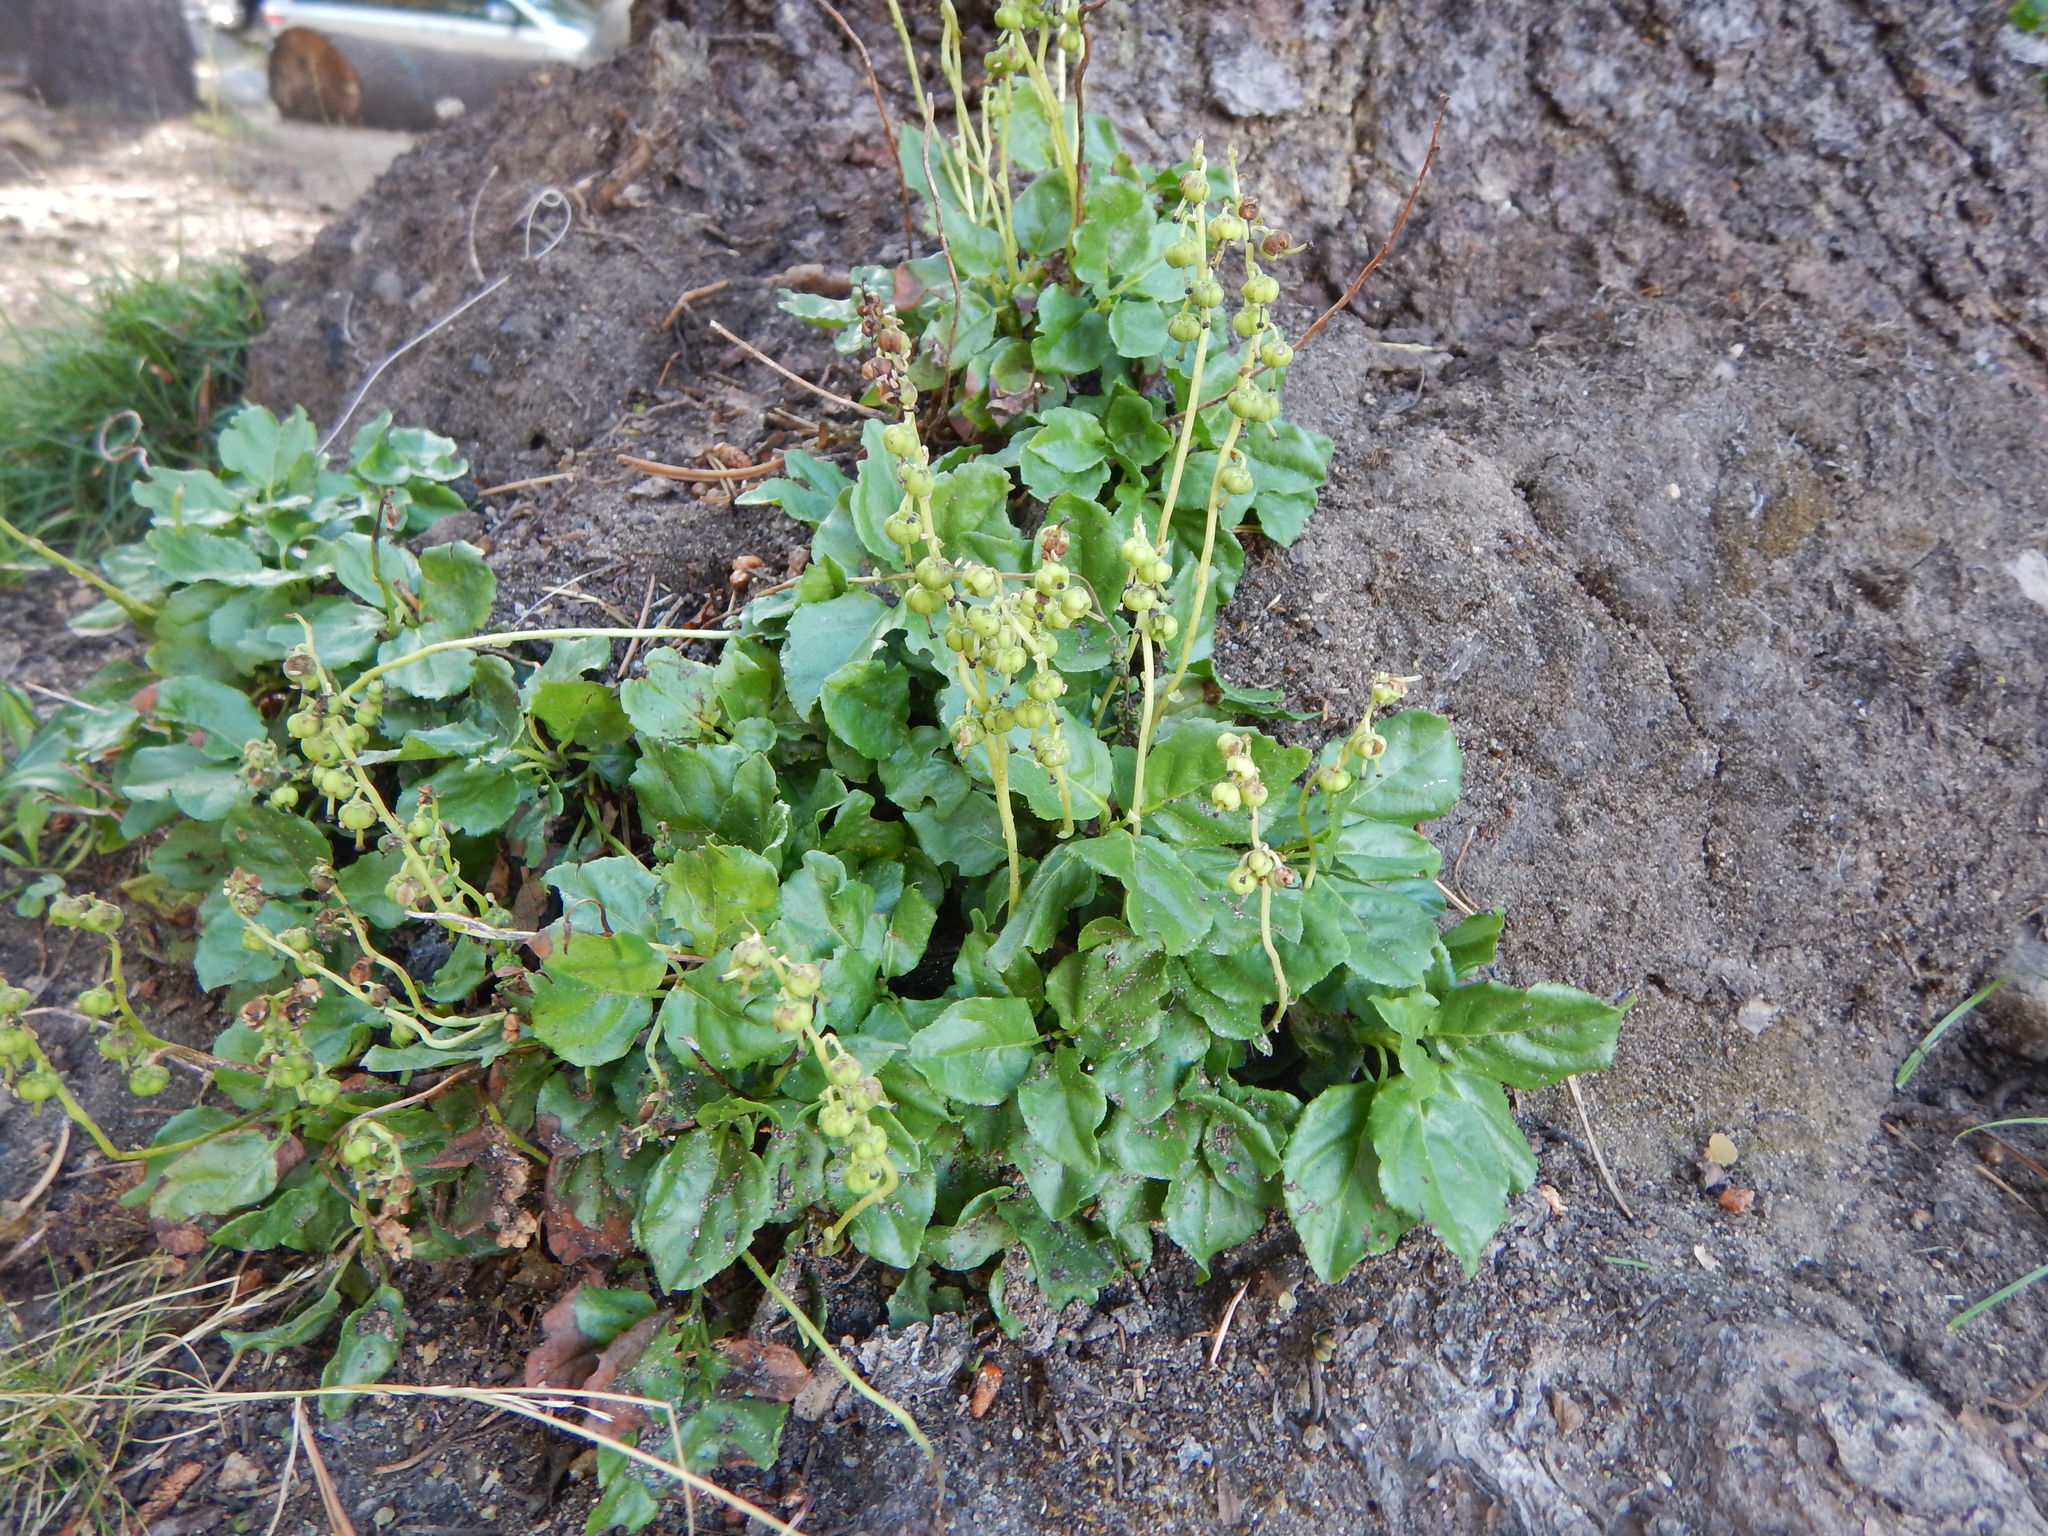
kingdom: Plantae
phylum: Tracheophyta
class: Magnoliopsida
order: Ericales
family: Ericaceae
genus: Orthilia
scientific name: Orthilia secunda
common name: One-sided orthilia
